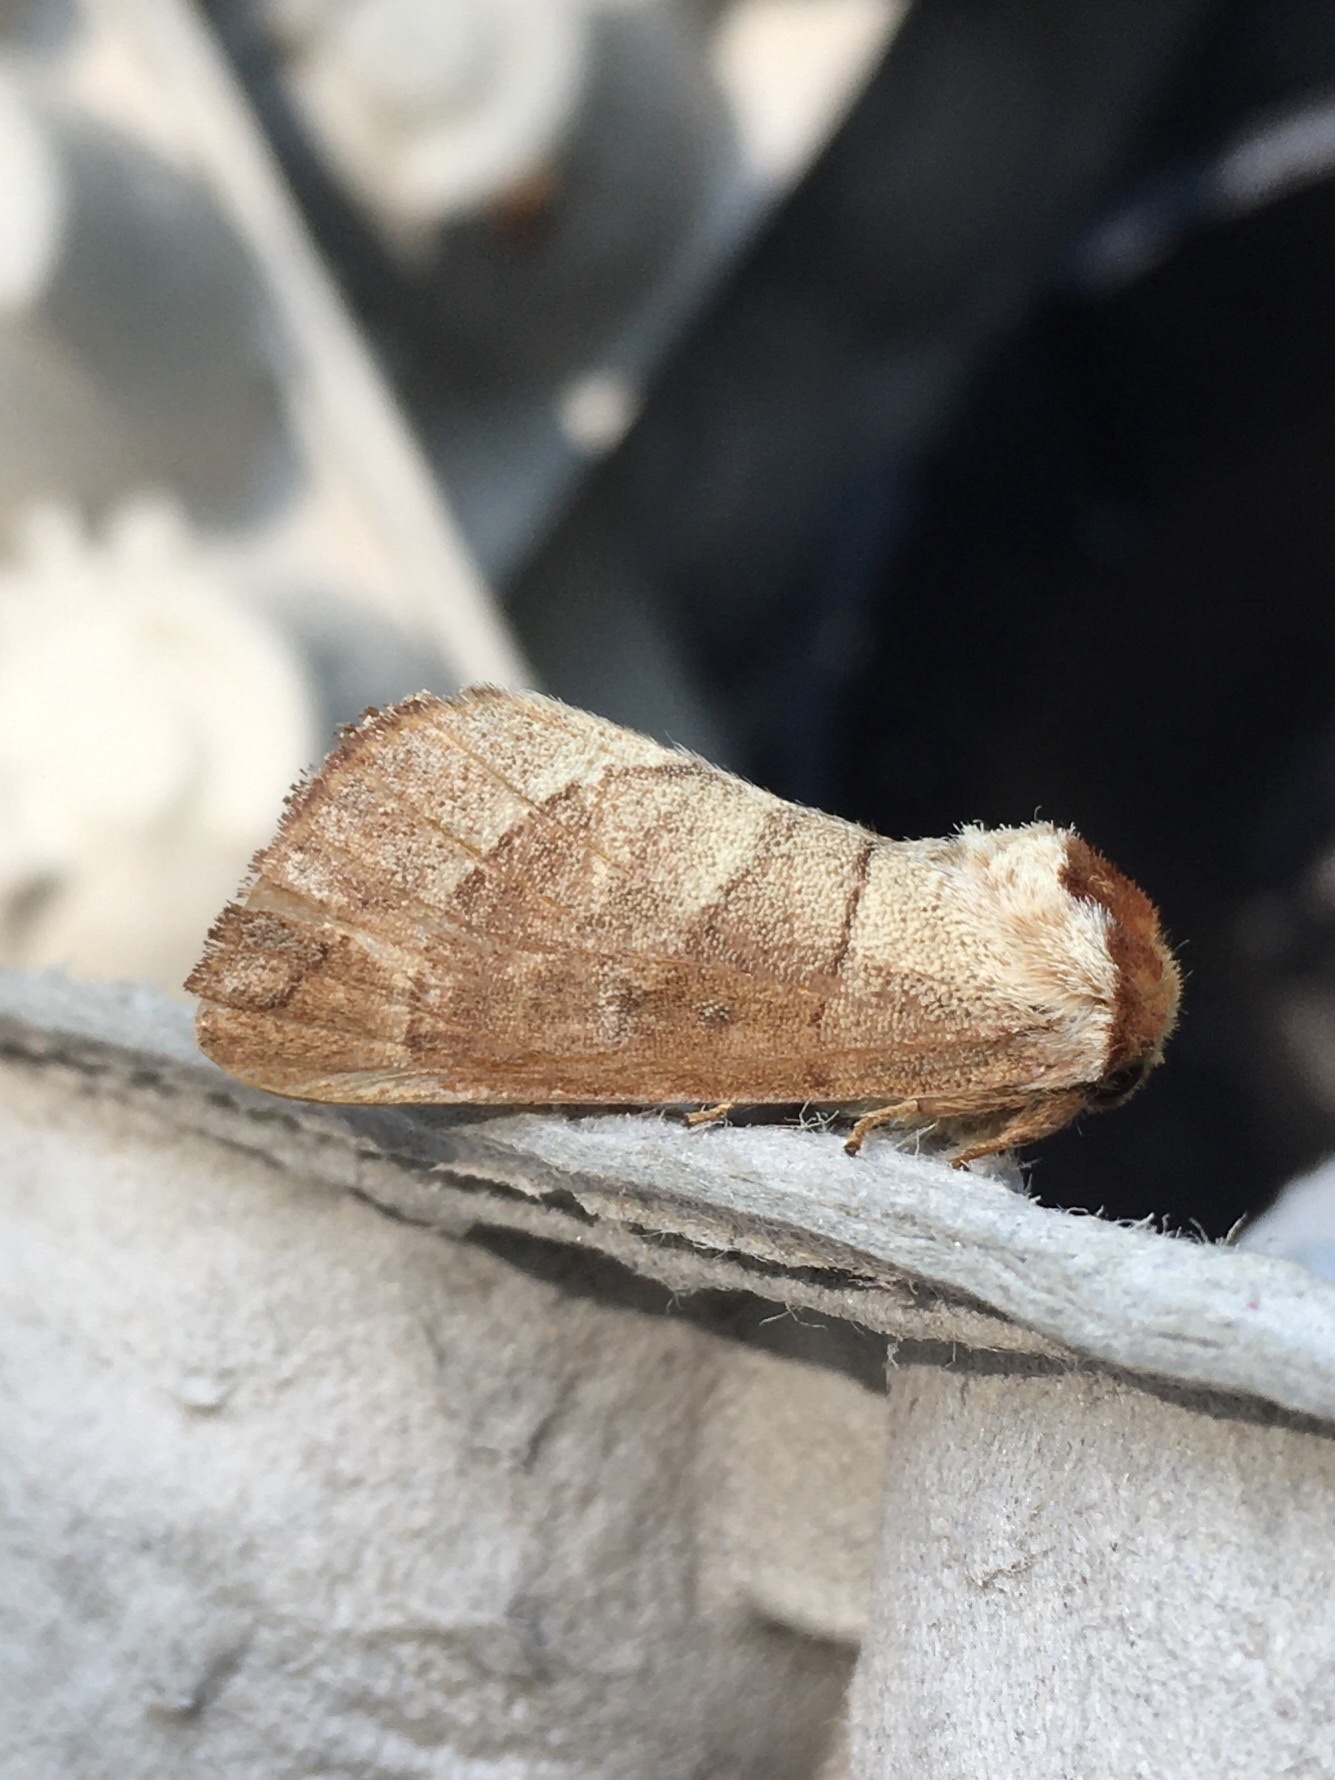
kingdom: Animalia
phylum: Arthropoda
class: Insecta
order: Lepidoptera
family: Notodontidae
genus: Datana
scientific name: Datana integerrima
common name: Walnut caterpillar
